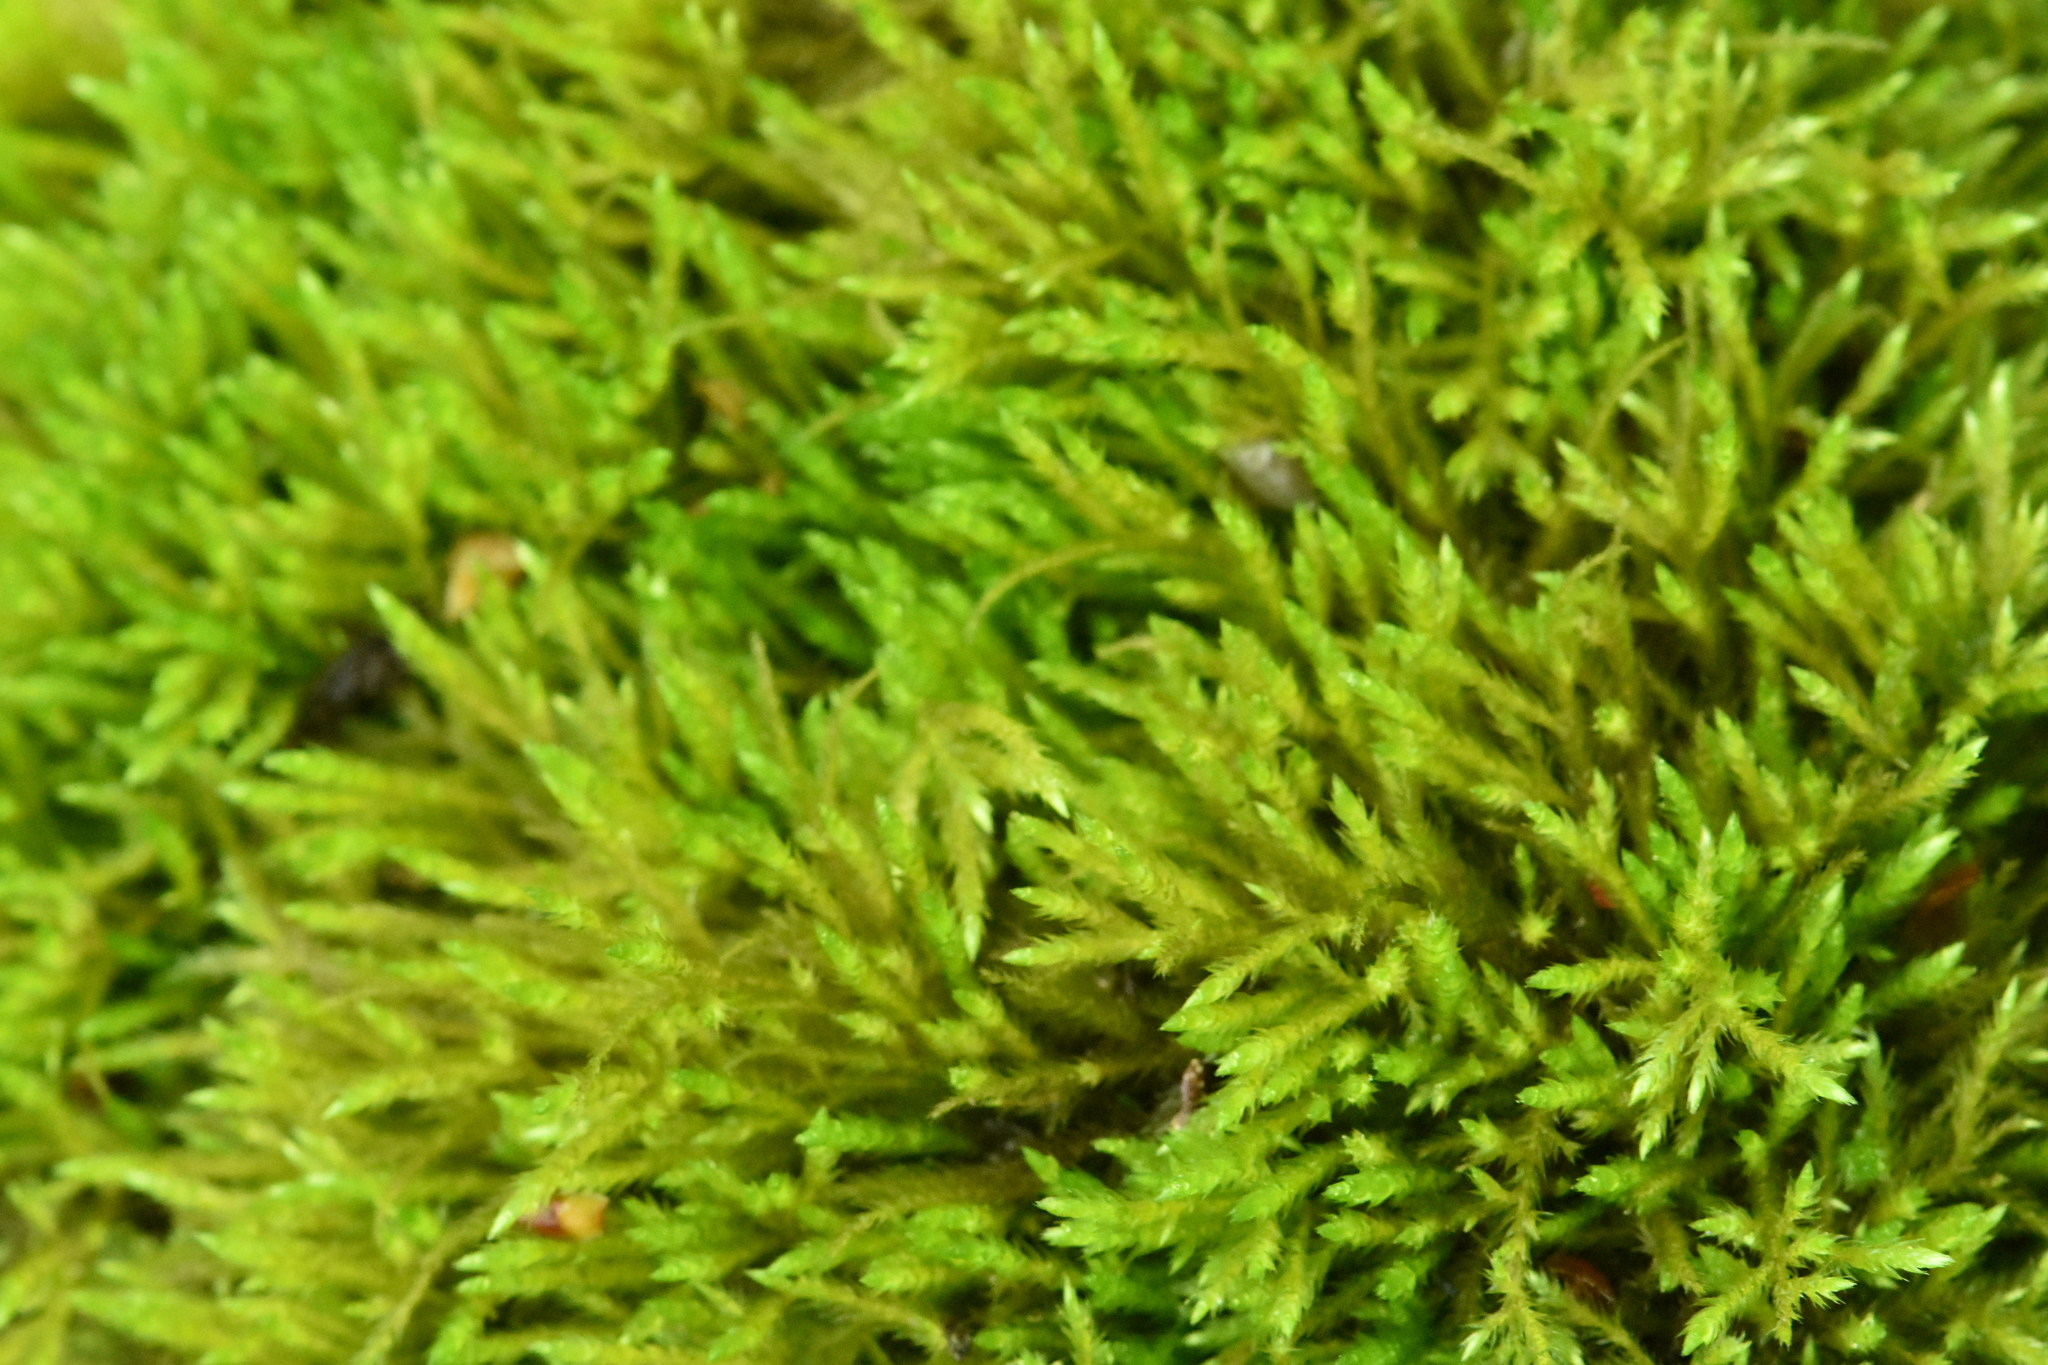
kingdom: Plantae
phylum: Bryophyta
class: Bryopsida
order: Hypnales
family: Neckeraceae
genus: Pseudanomodon
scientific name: Pseudanomodon attenuatus
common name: Tree-skirt moss
